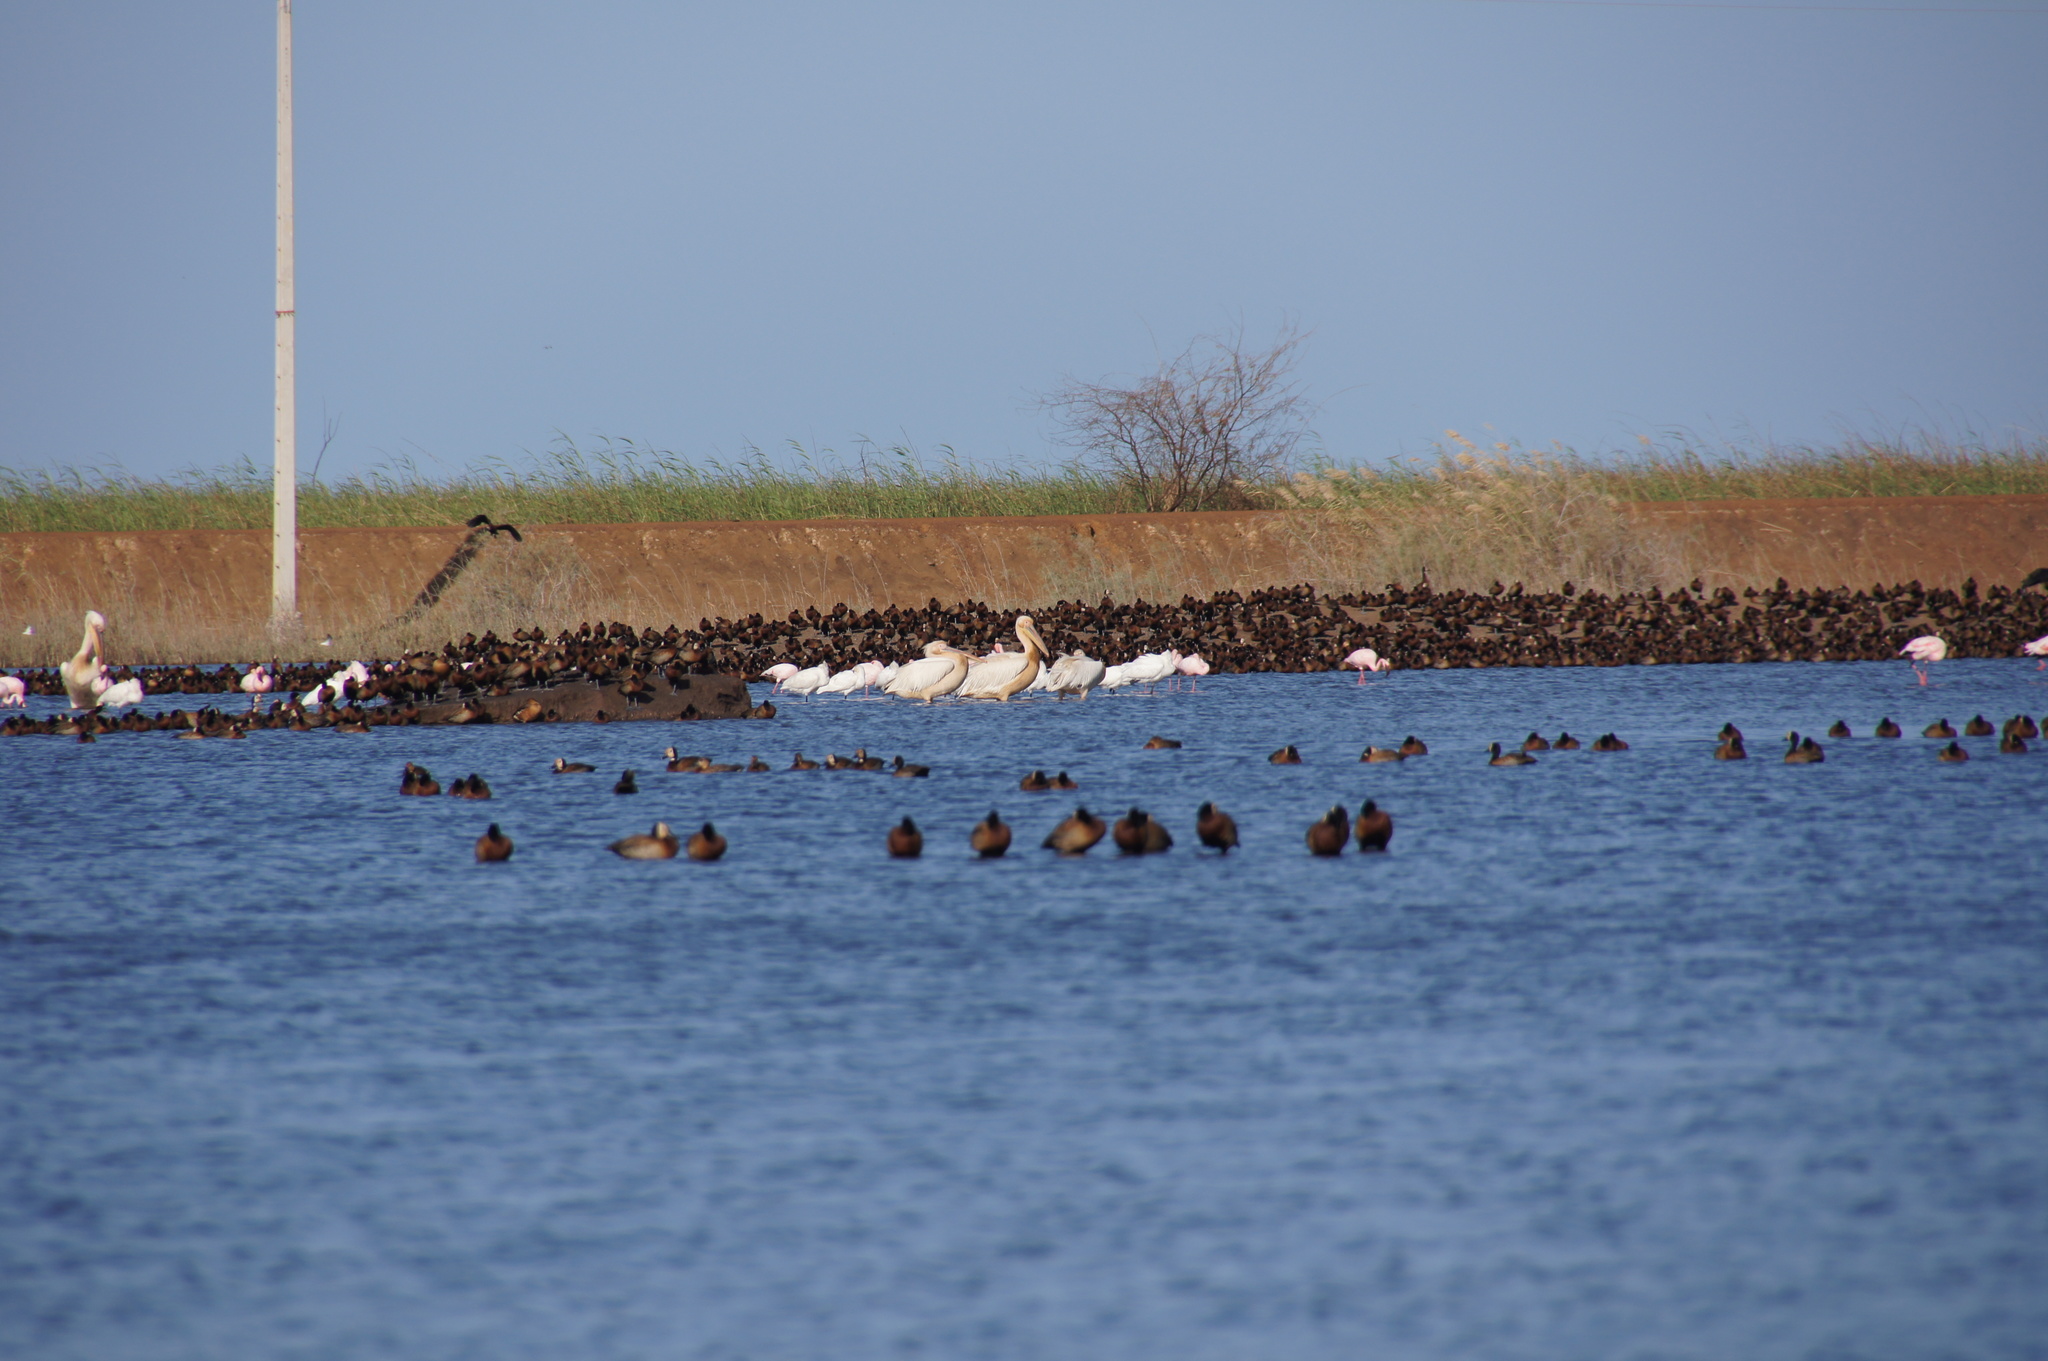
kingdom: Animalia
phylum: Chordata
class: Aves
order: Pelecaniformes
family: Pelecanidae
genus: Pelecanus
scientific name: Pelecanus onocrotalus
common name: Great white pelican
